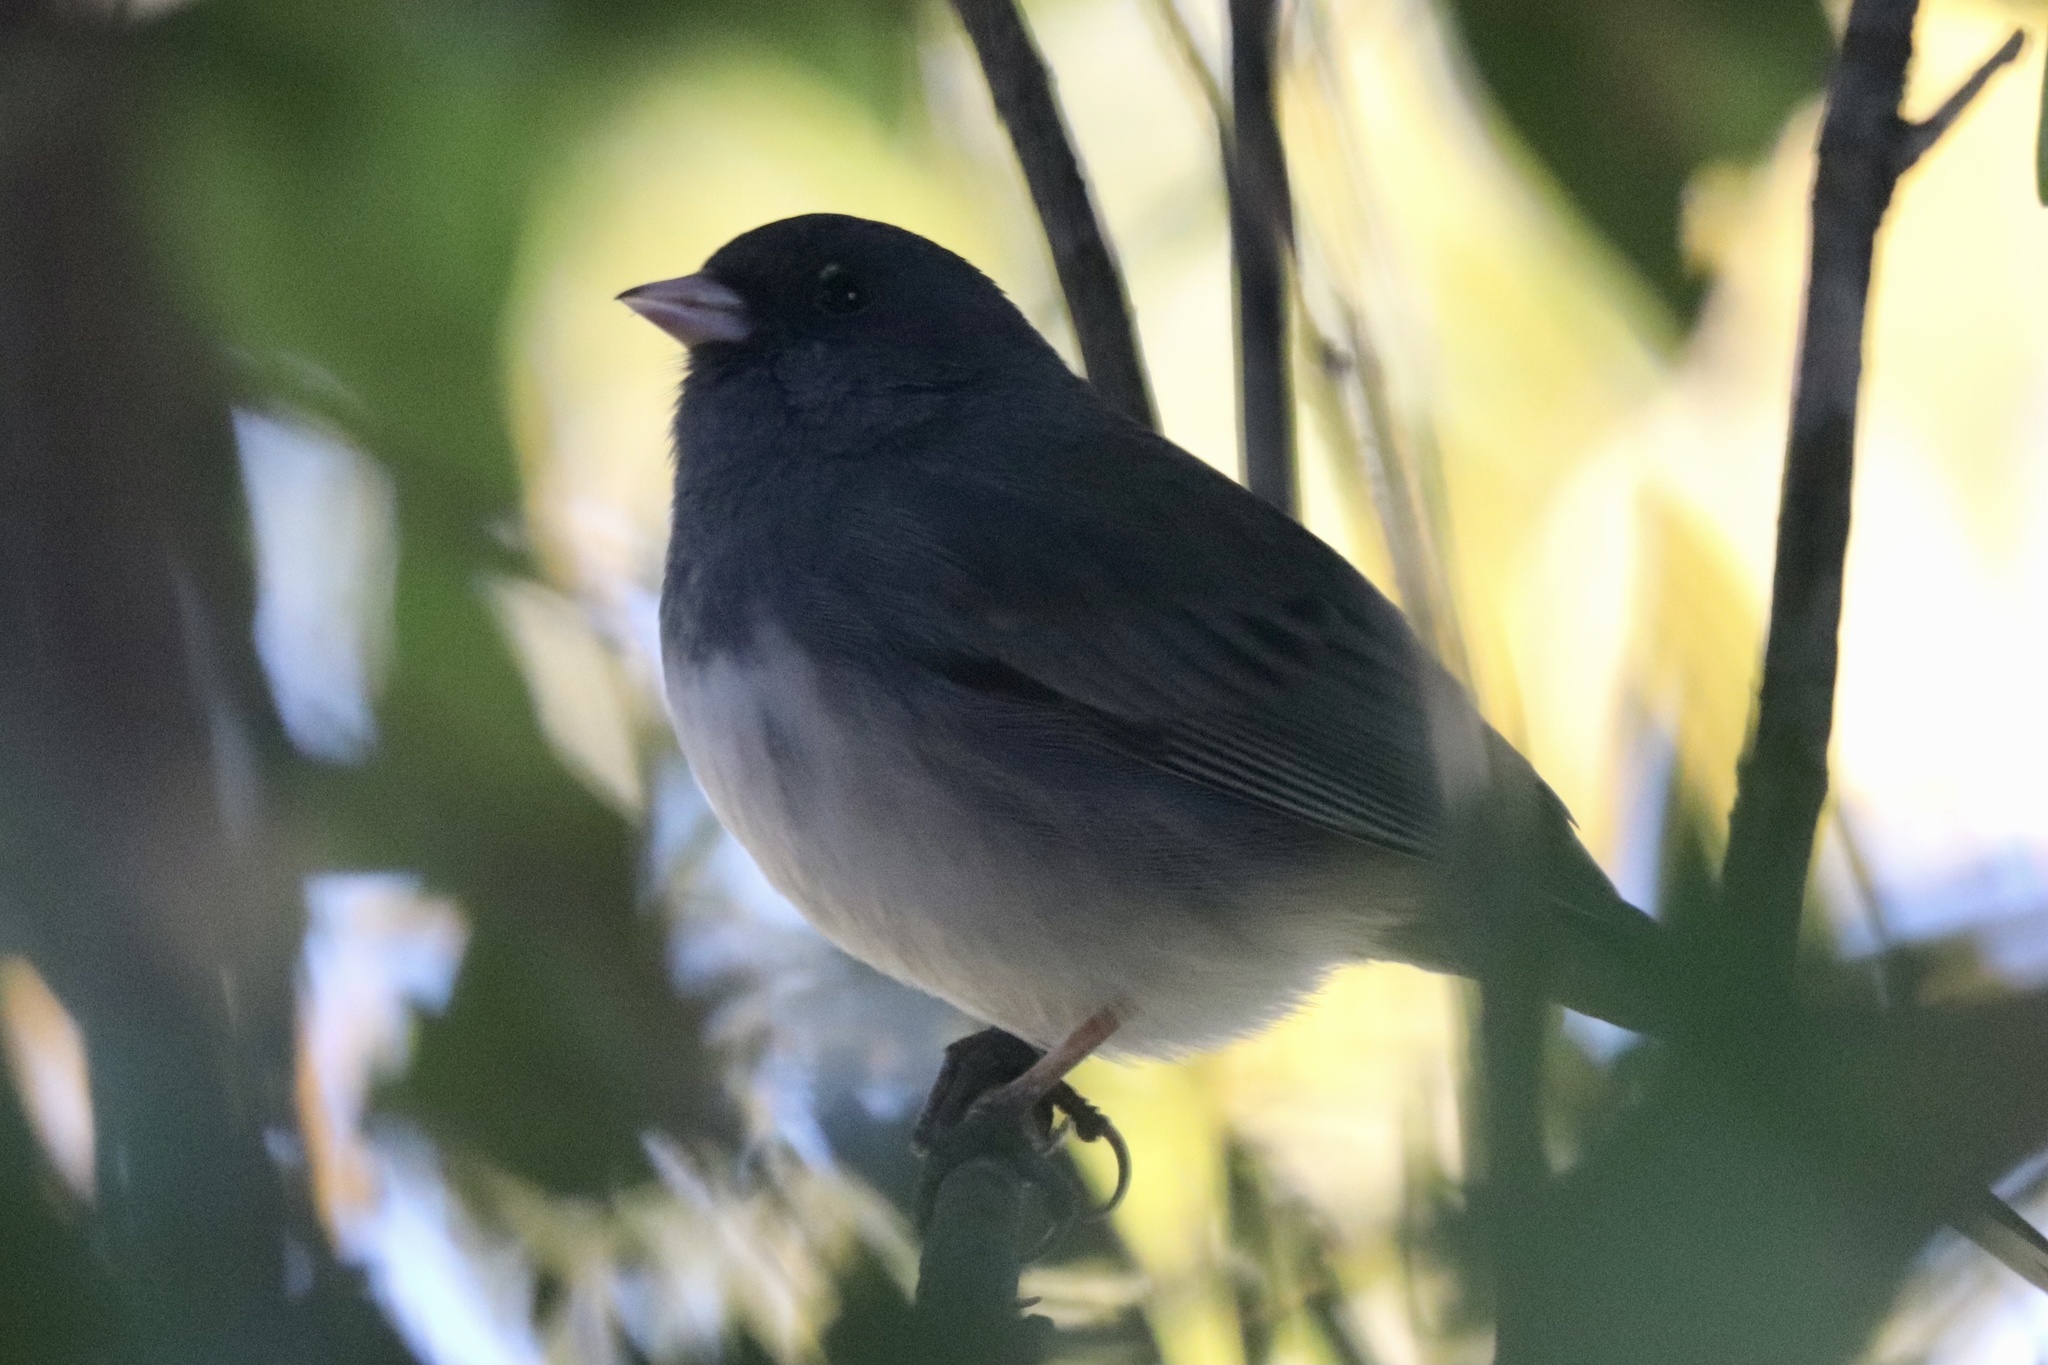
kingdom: Animalia
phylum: Chordata
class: Aves
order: Passeriformes
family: Passerellidae
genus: Junco
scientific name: Junco hyemalis
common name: Dark-eyed junco
